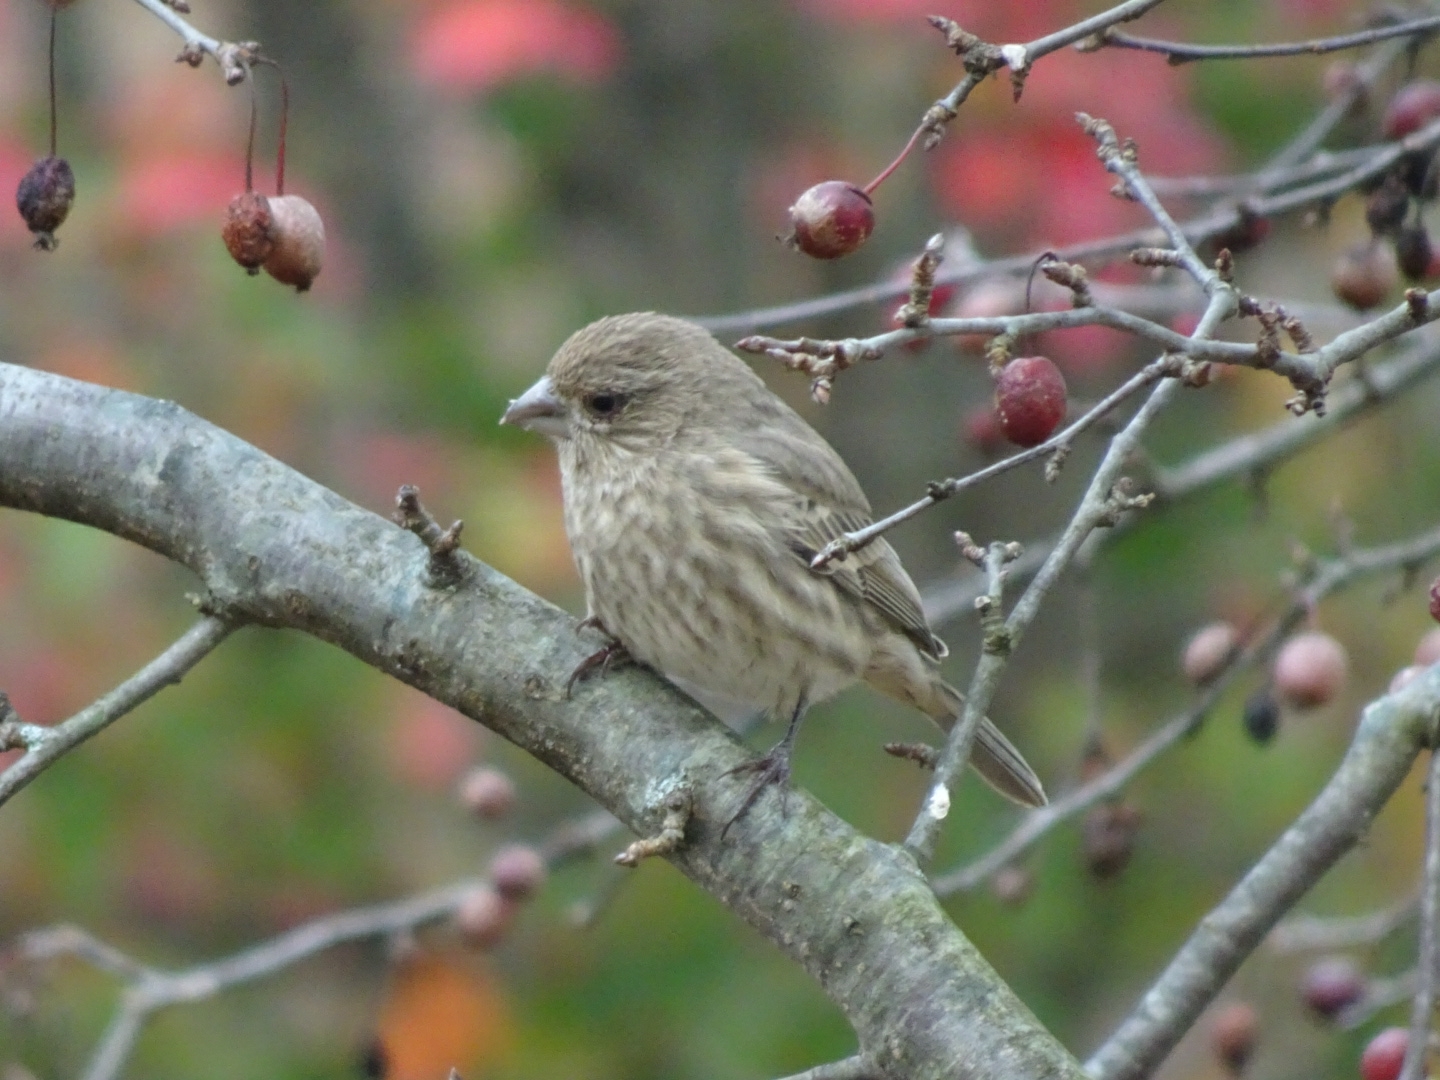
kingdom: Animalia
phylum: Chordata
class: Aves
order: Passeriformes
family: Fringillidae
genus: Haemorhous
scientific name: Haemorhous mexicanus
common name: House finch
